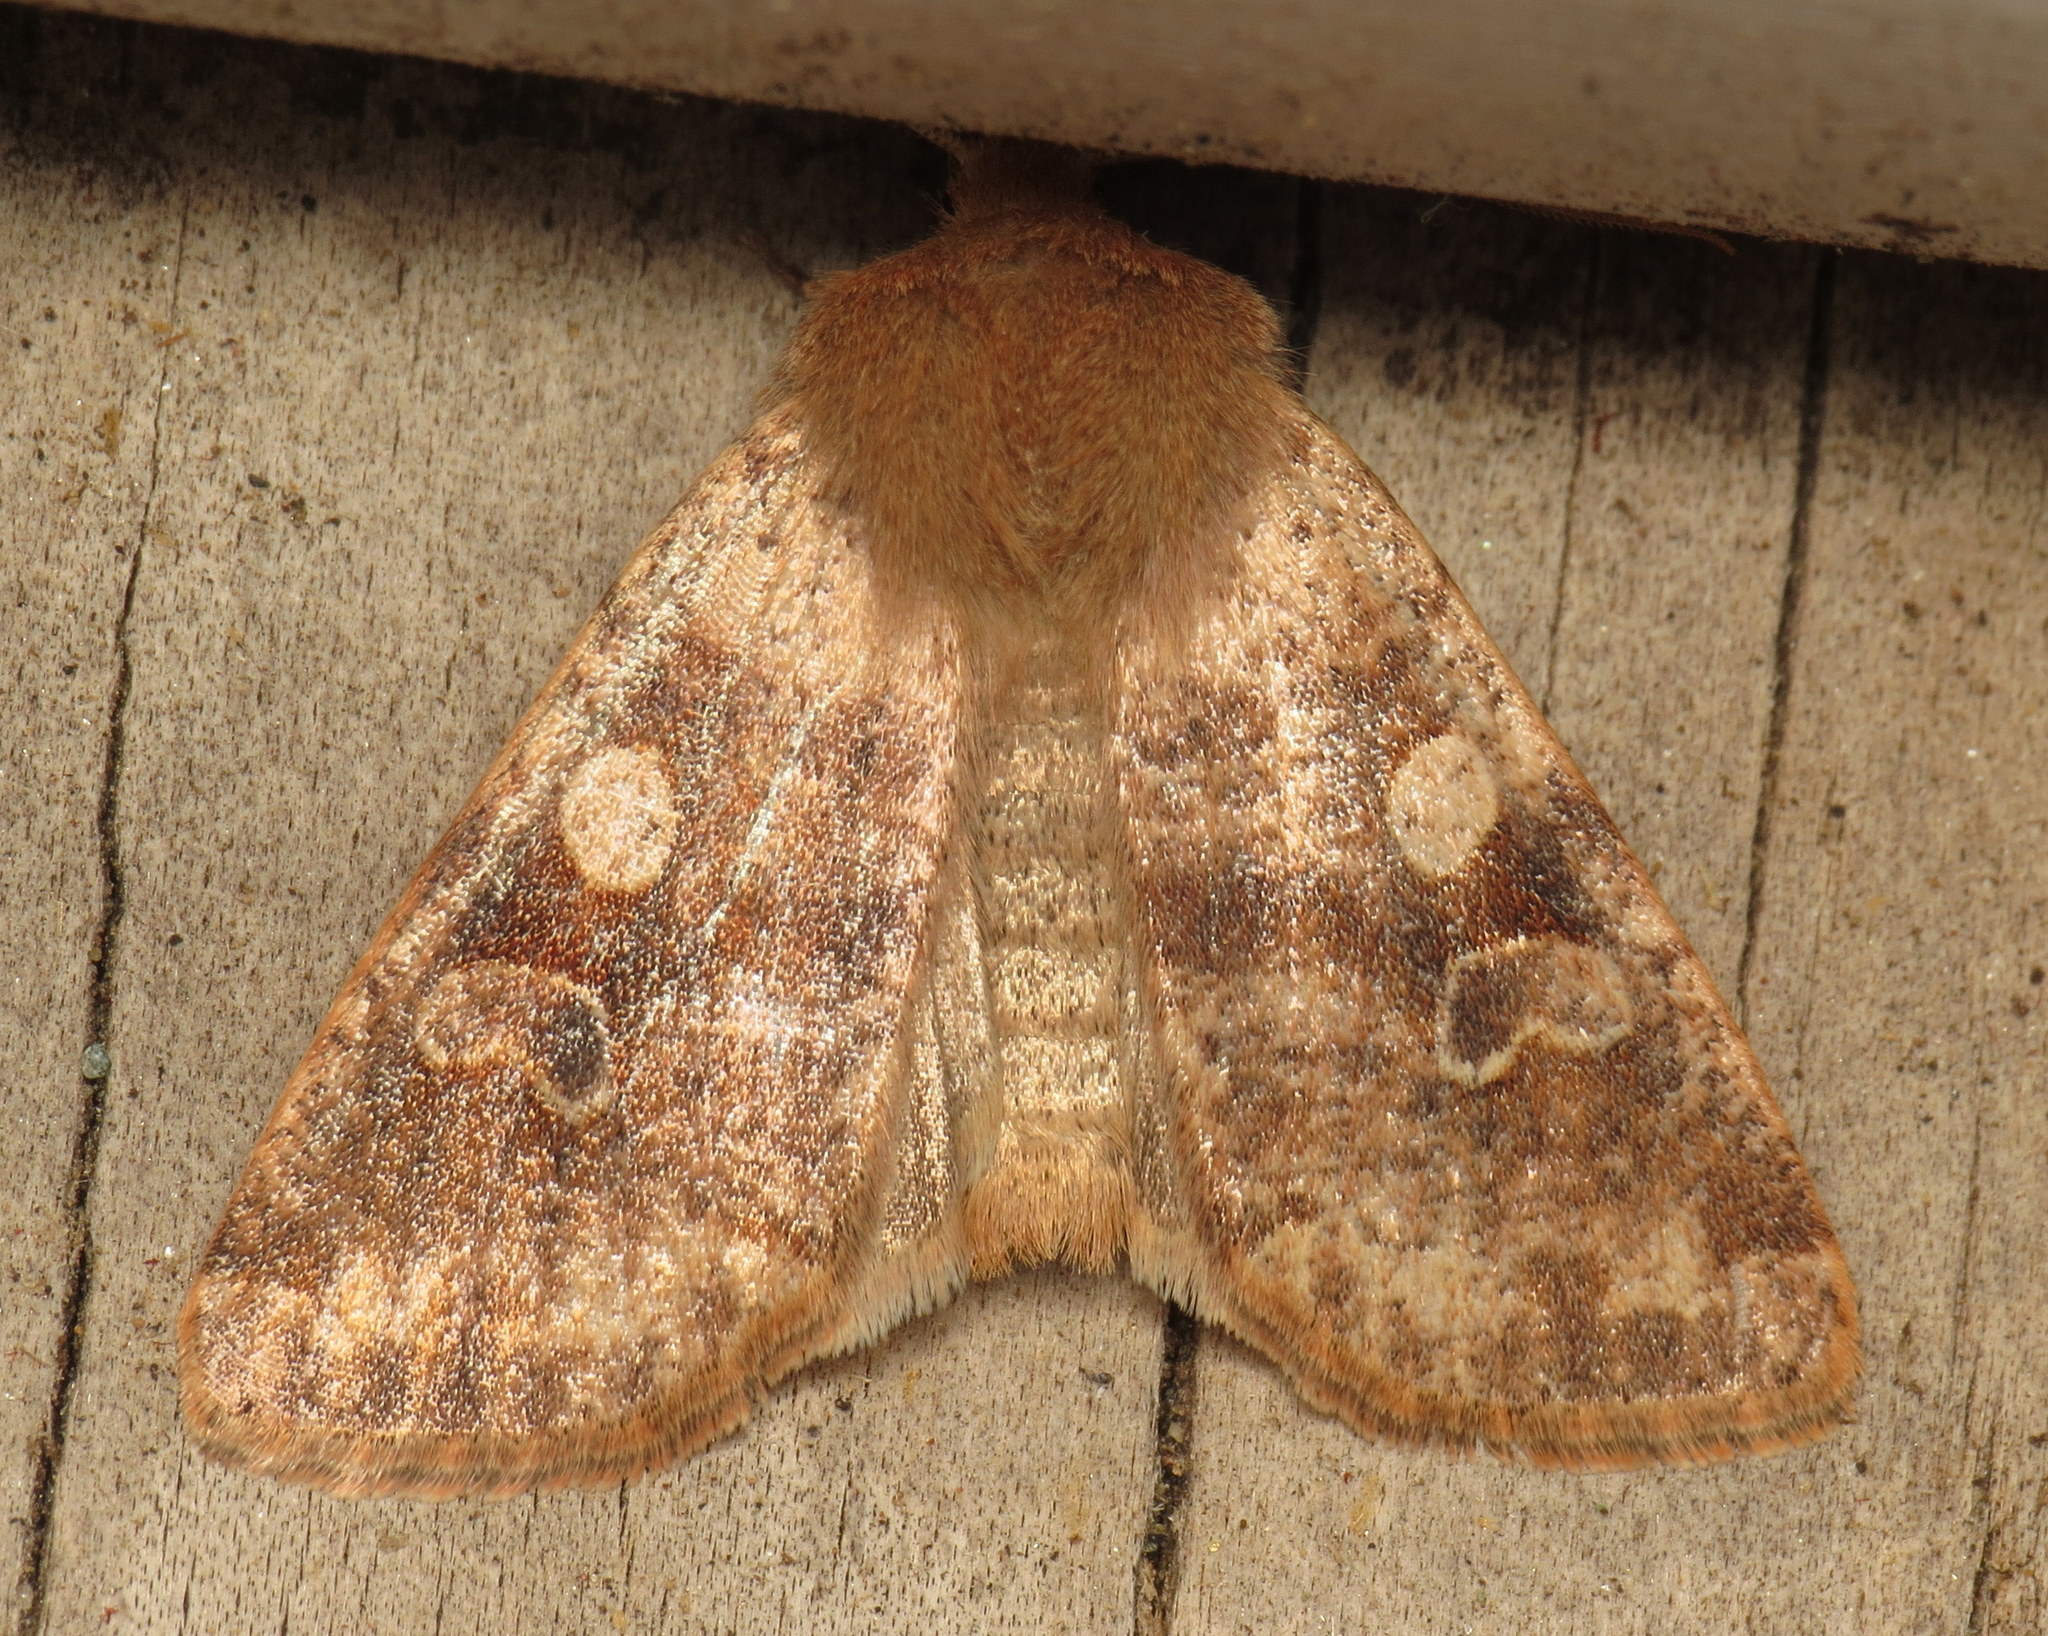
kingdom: Animalia
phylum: Arthropoda
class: Insecta
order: Lepidoptera
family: Noctuidae
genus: Orthosia
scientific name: Orthosia rubescens
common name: Ruby quaker
